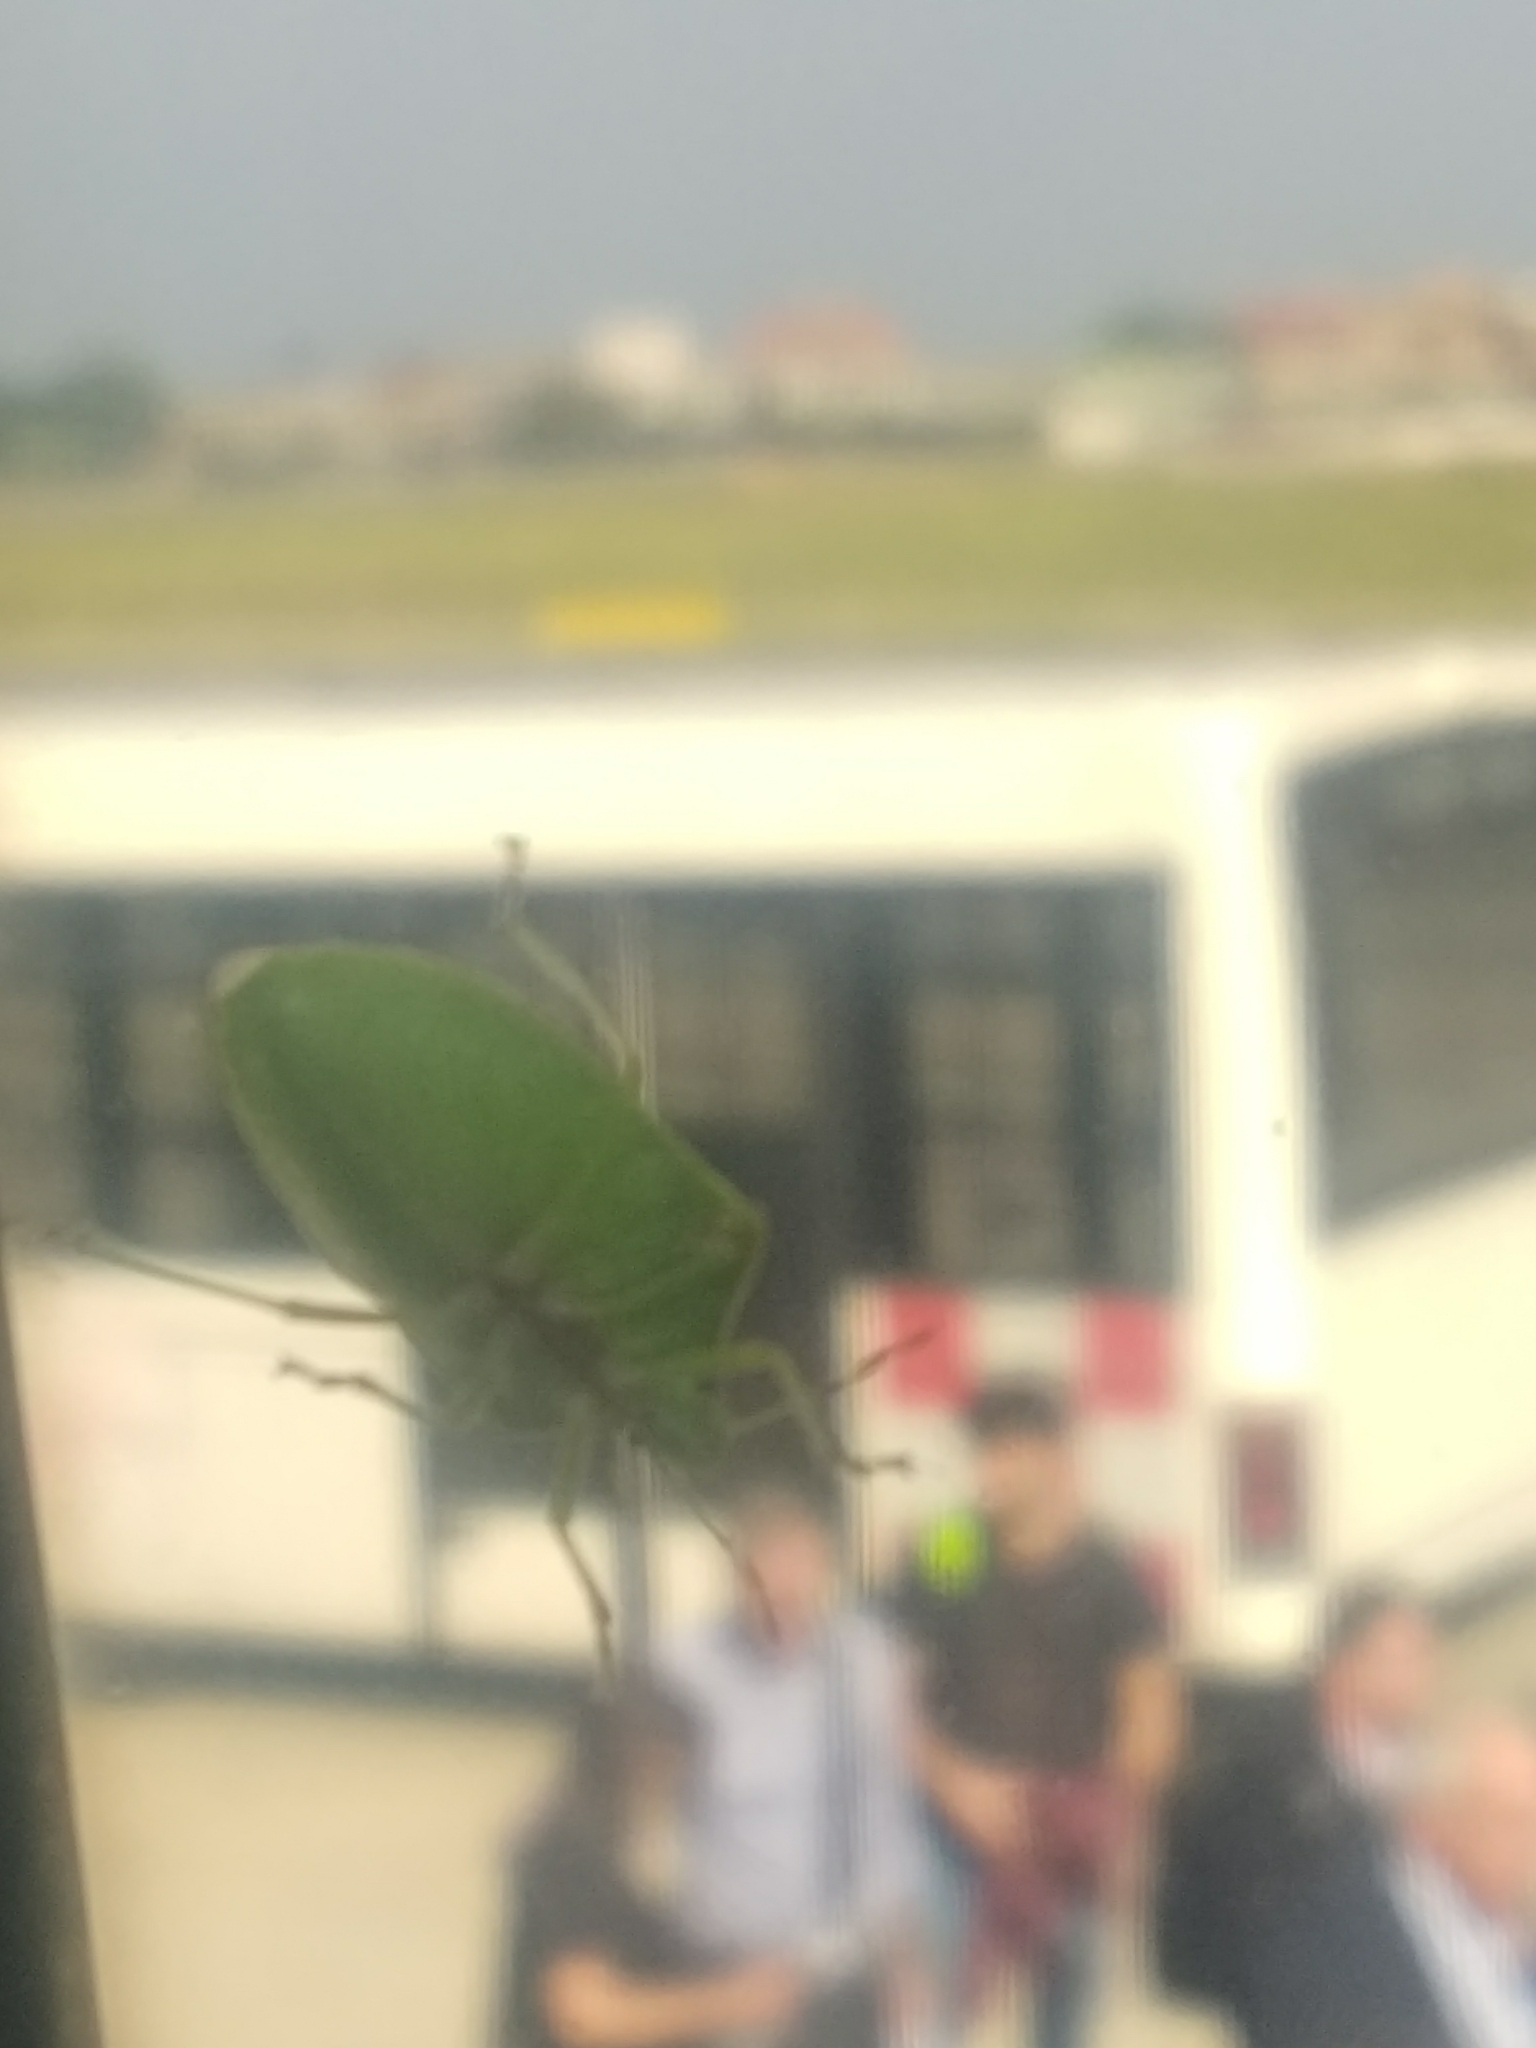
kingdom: Animalia
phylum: Arthropoda
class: Insecta
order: Hemiptera
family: Pentatomidae
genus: Nezara
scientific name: Nezara viridula
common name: Southern green stink bug
